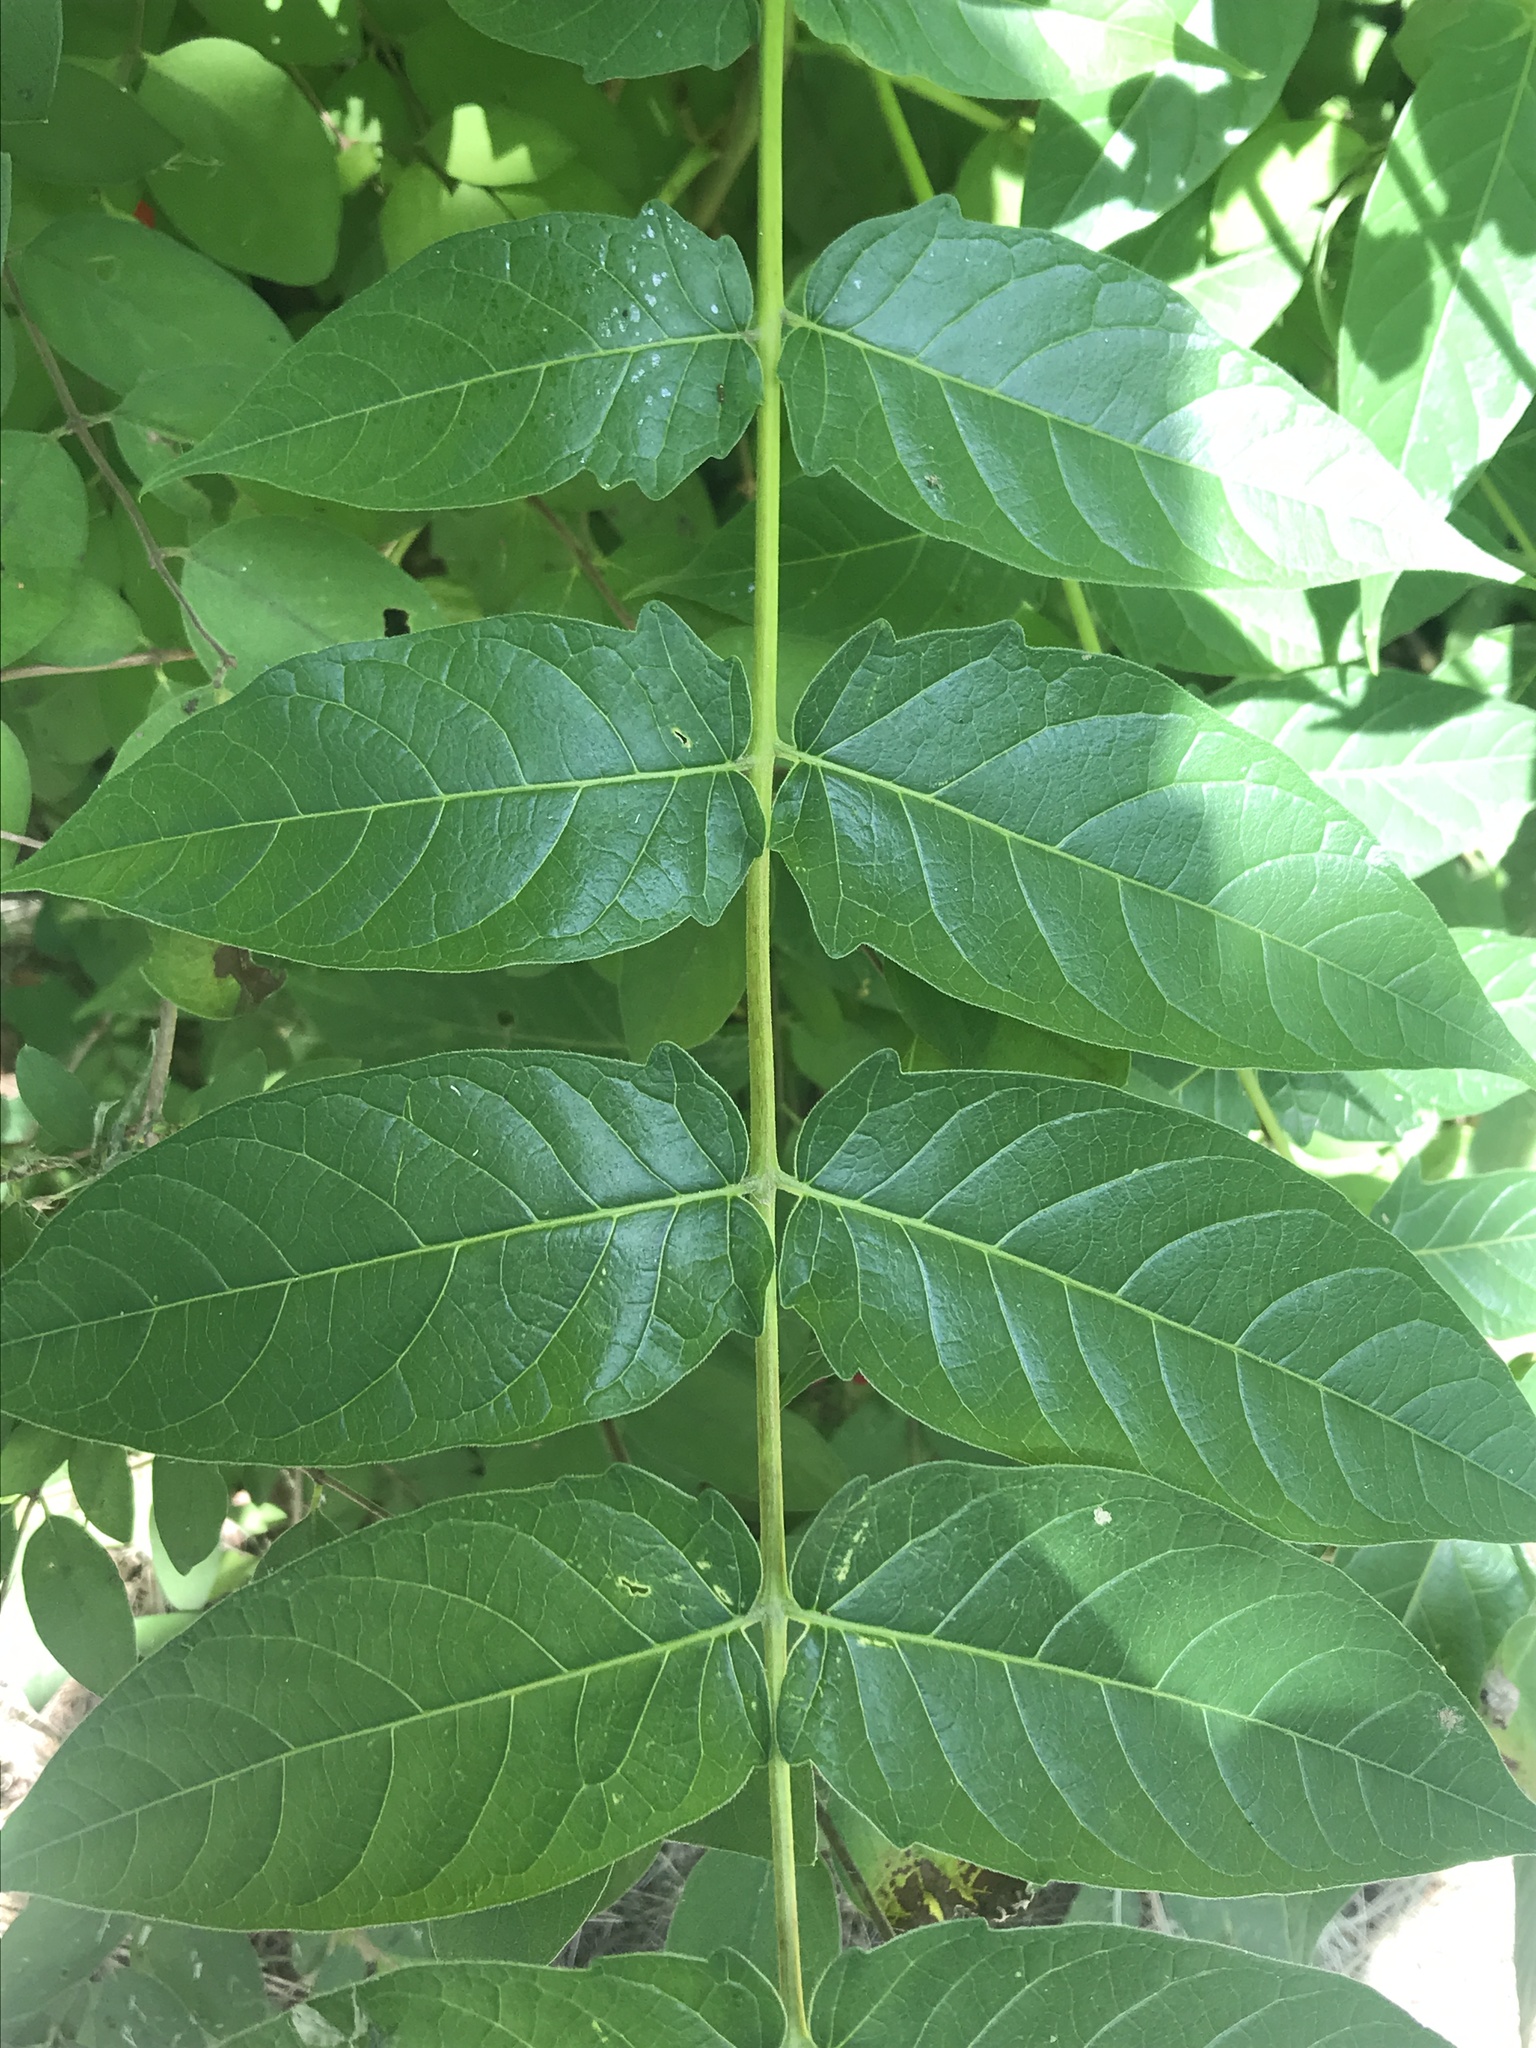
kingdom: Plantae
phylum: Tracheophyta
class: Magnoliopsida
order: Sapindales
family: Simaroubaceae
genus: Ailanthus
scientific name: Ailanthus altissima
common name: Tree-of-heaven
